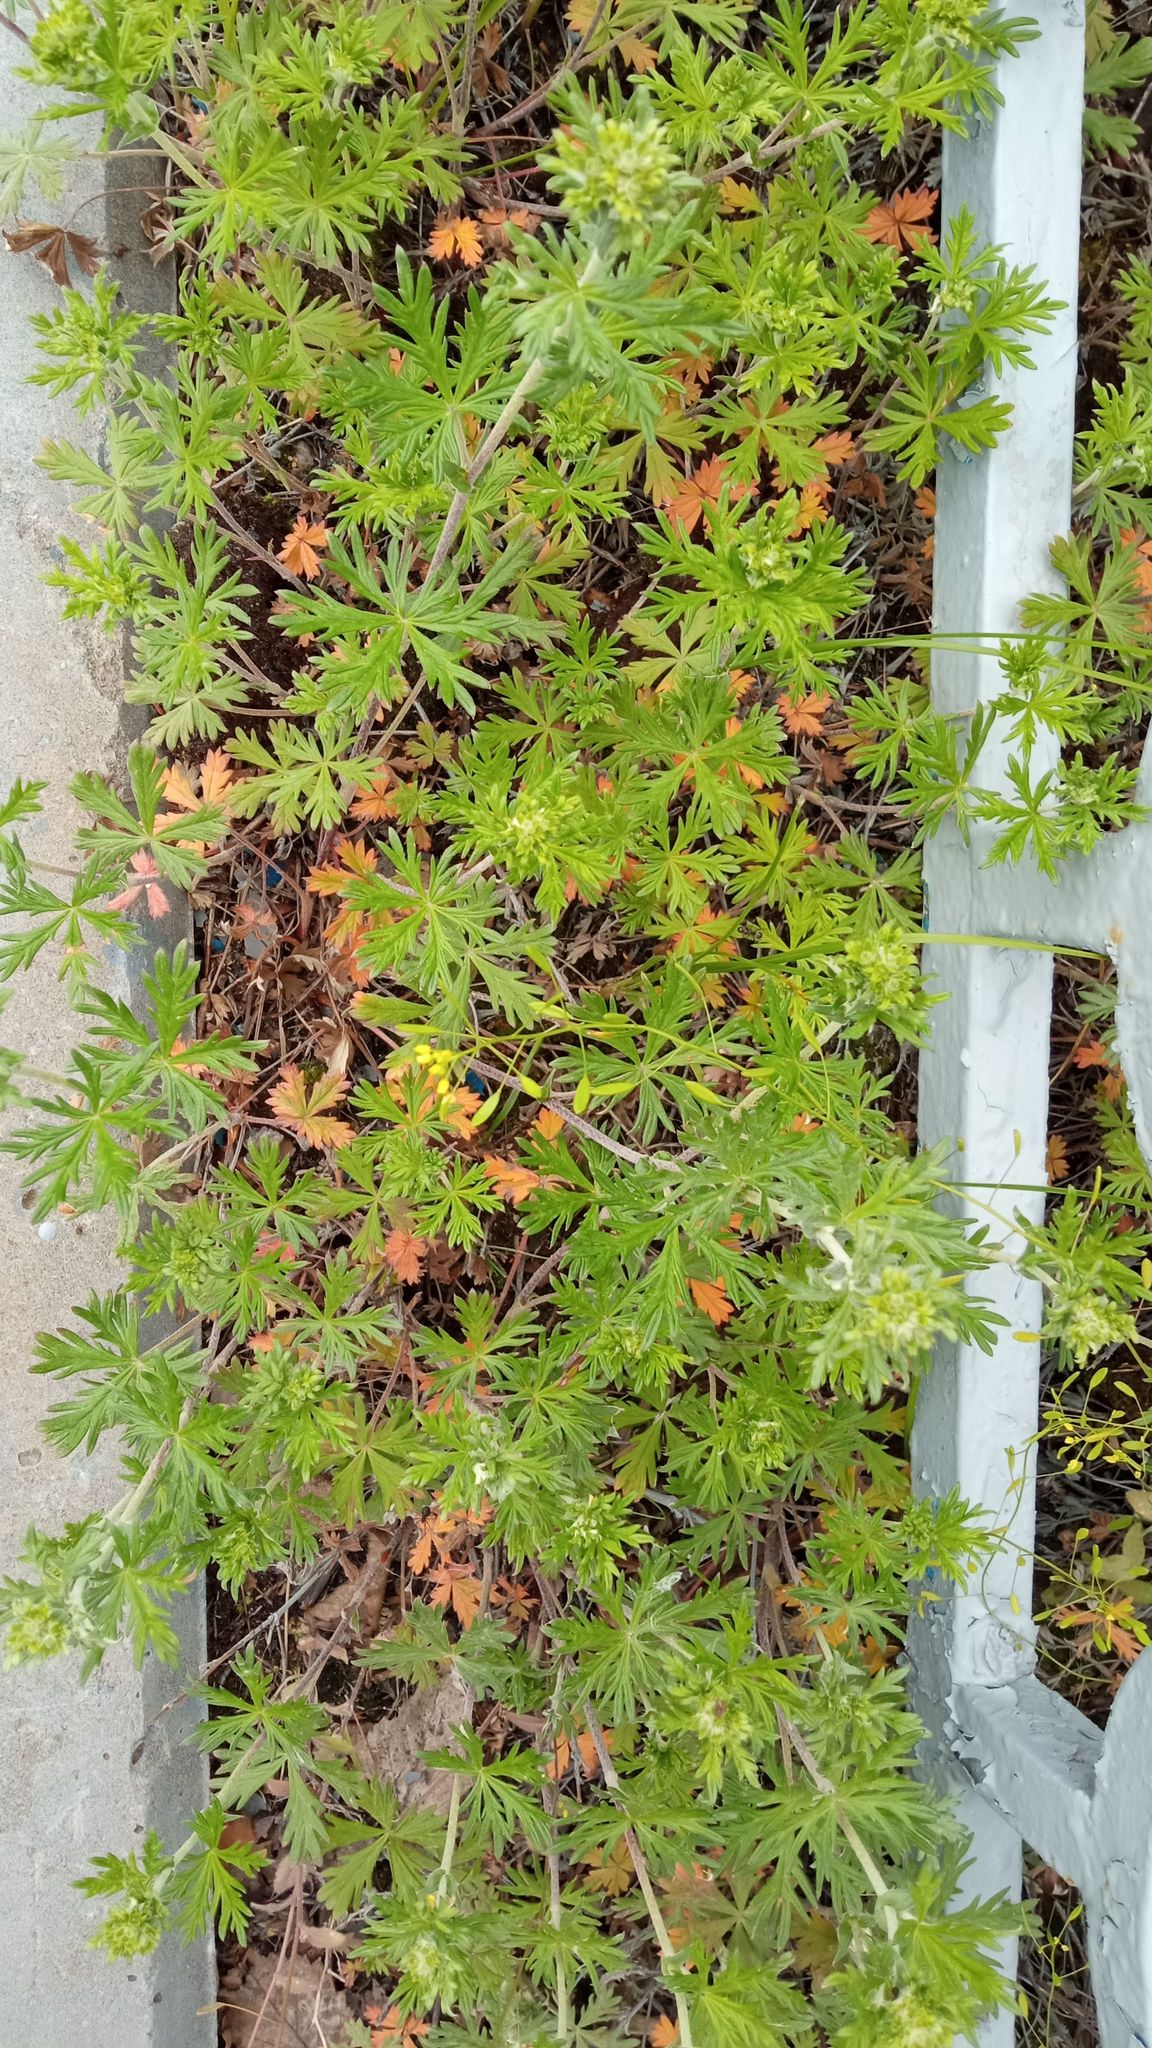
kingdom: Plantae
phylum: Tracheophyta
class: Magnoliopsida
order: Rosales
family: Rosaceae
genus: Potentilla
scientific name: Potentilla argentea
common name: Hoary cinquefoil
